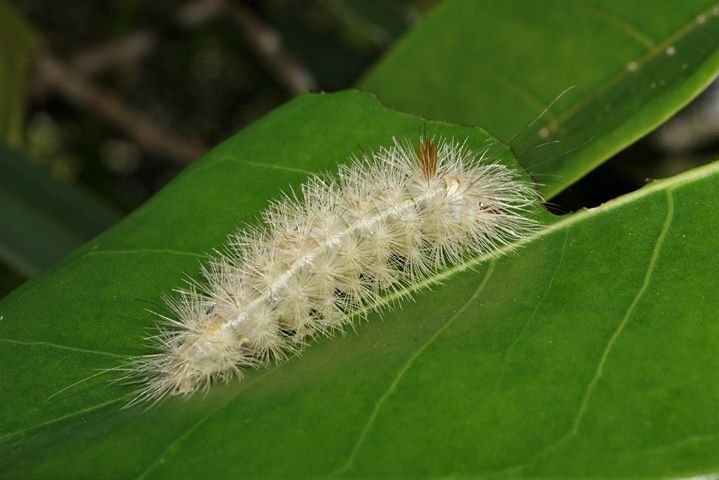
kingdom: Animalia
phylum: Arthropoda
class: Insecta
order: Lepidoptera
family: Erebidae
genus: Lymire
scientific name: Lymire edwardsii
